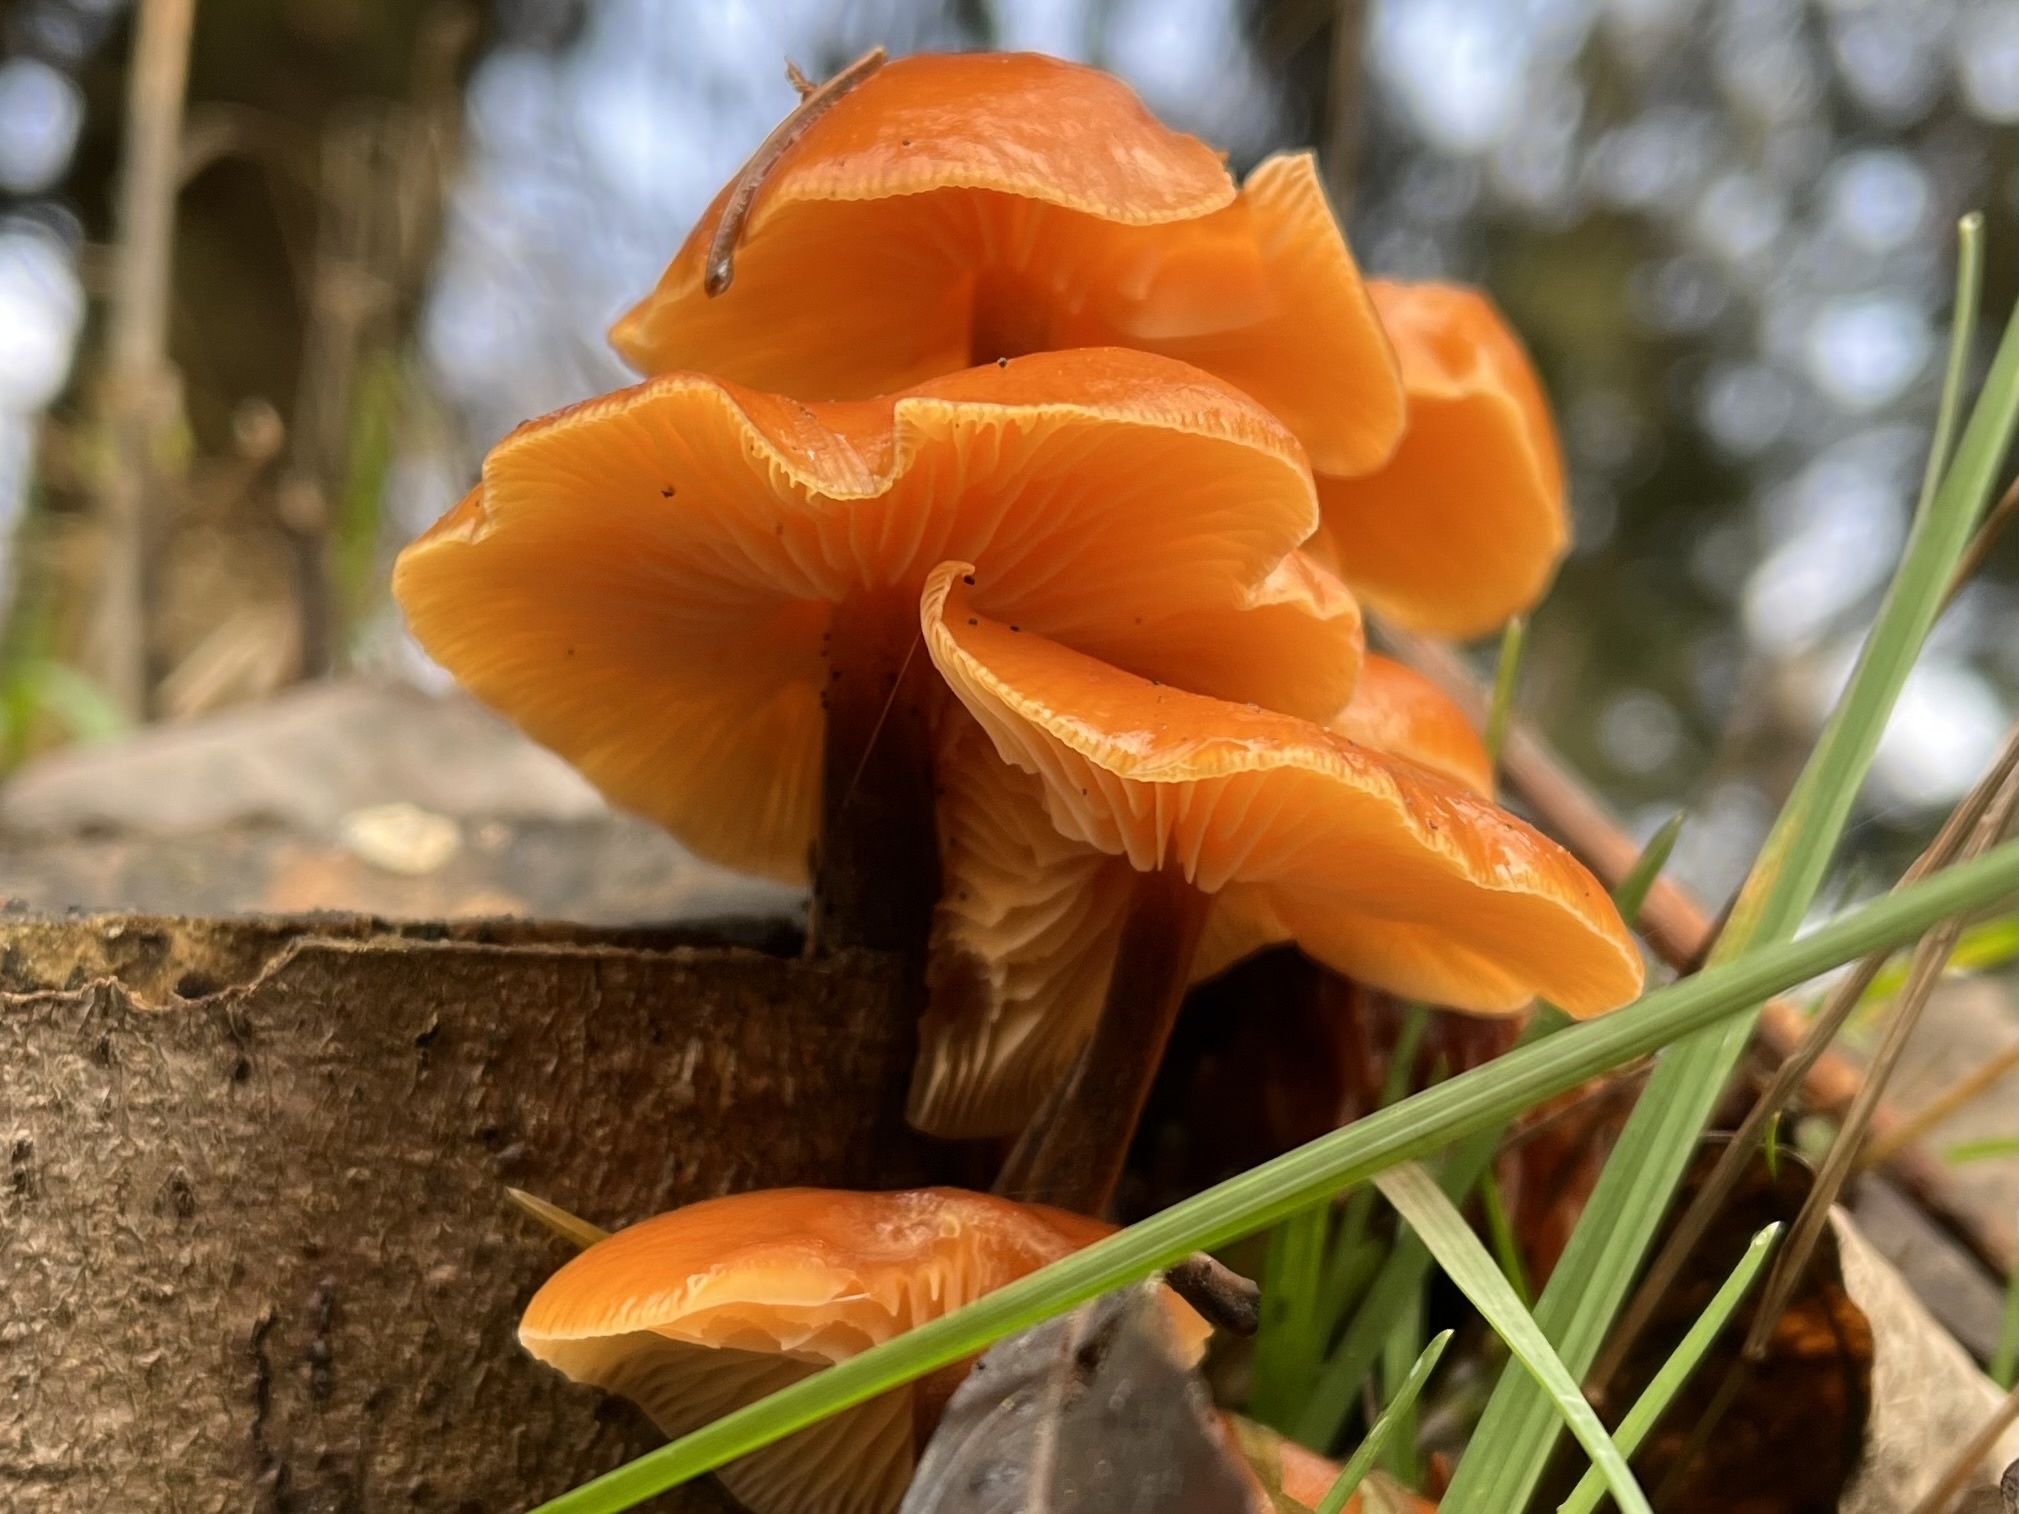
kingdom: Fungi
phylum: Basidiomycota
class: Agaricomycetes
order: Agaricales
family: Physalacriaceae
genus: Flammulina
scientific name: Flammulina
